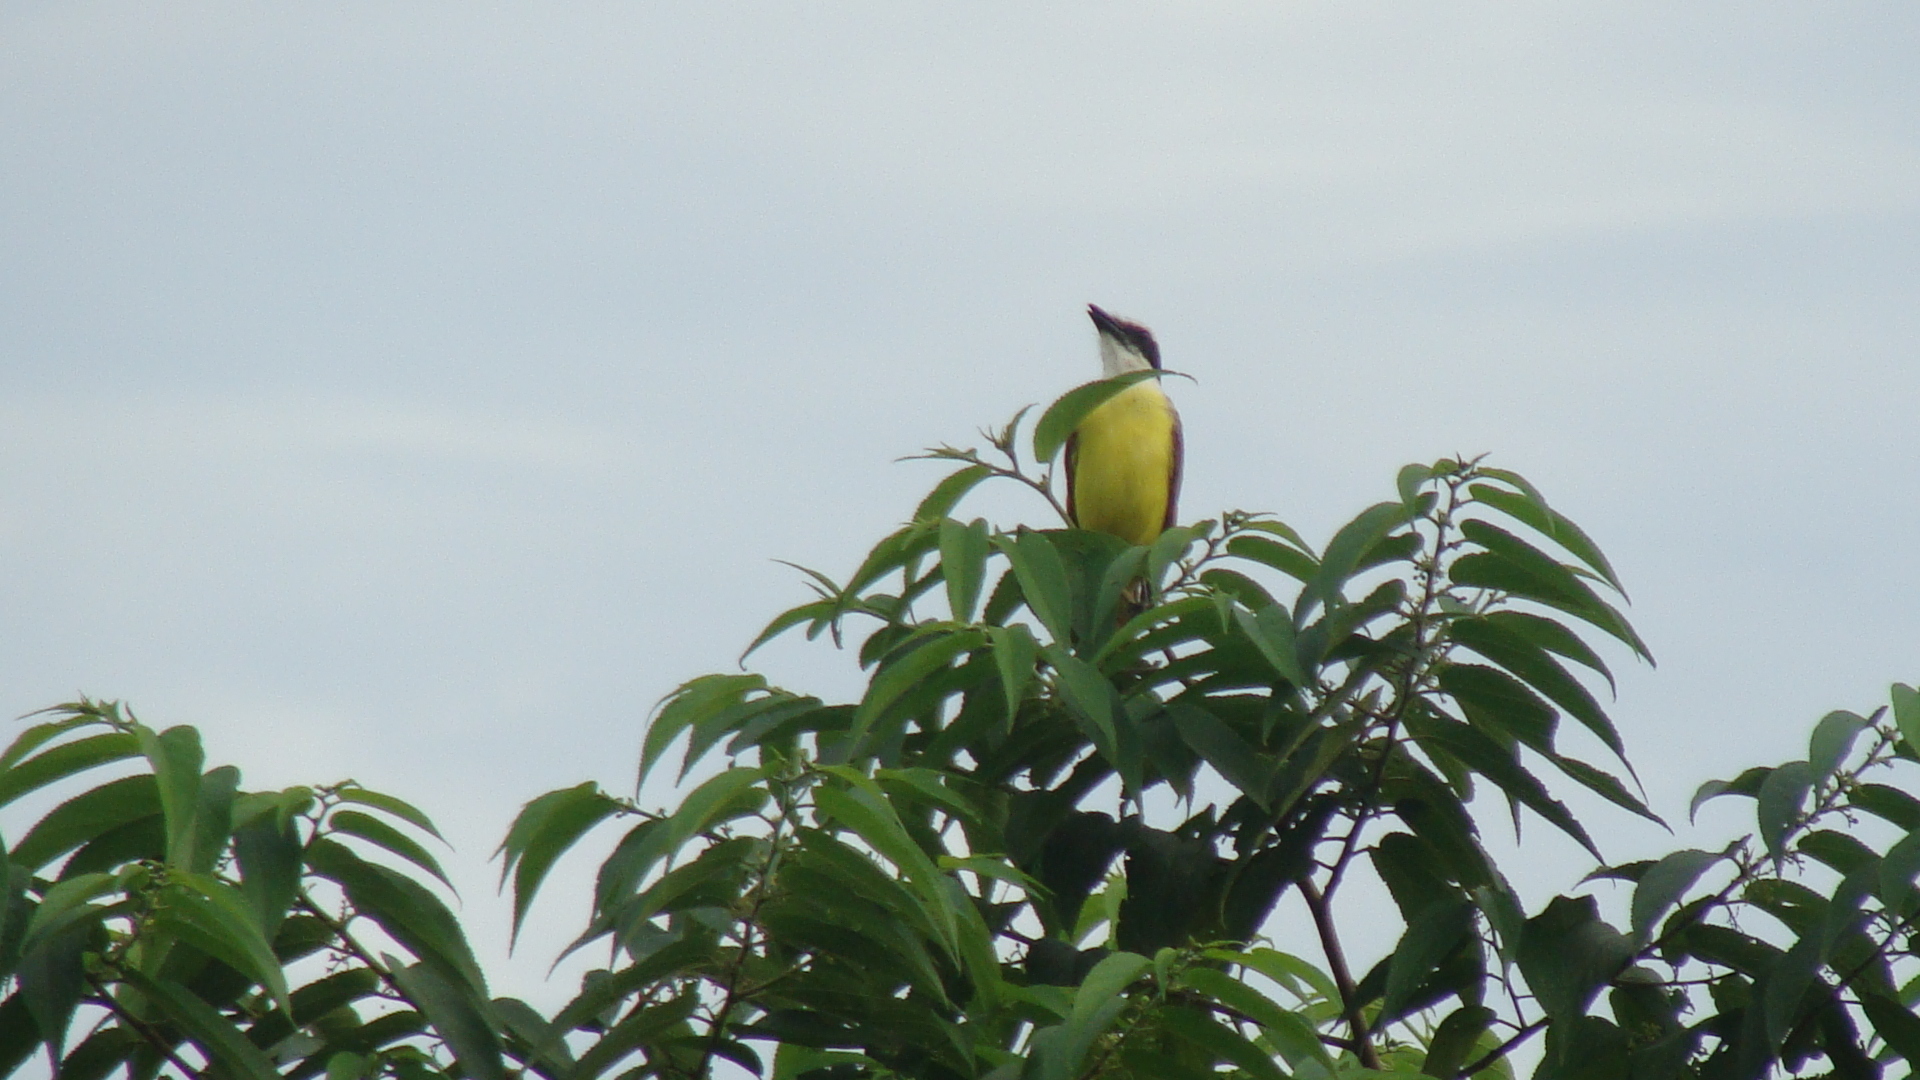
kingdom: Animalia
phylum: Chordata
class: Aves
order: Passeriformes
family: Tyrannidae
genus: Pitangus
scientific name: Pitangus sulphuratus
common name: Great kiskadee
